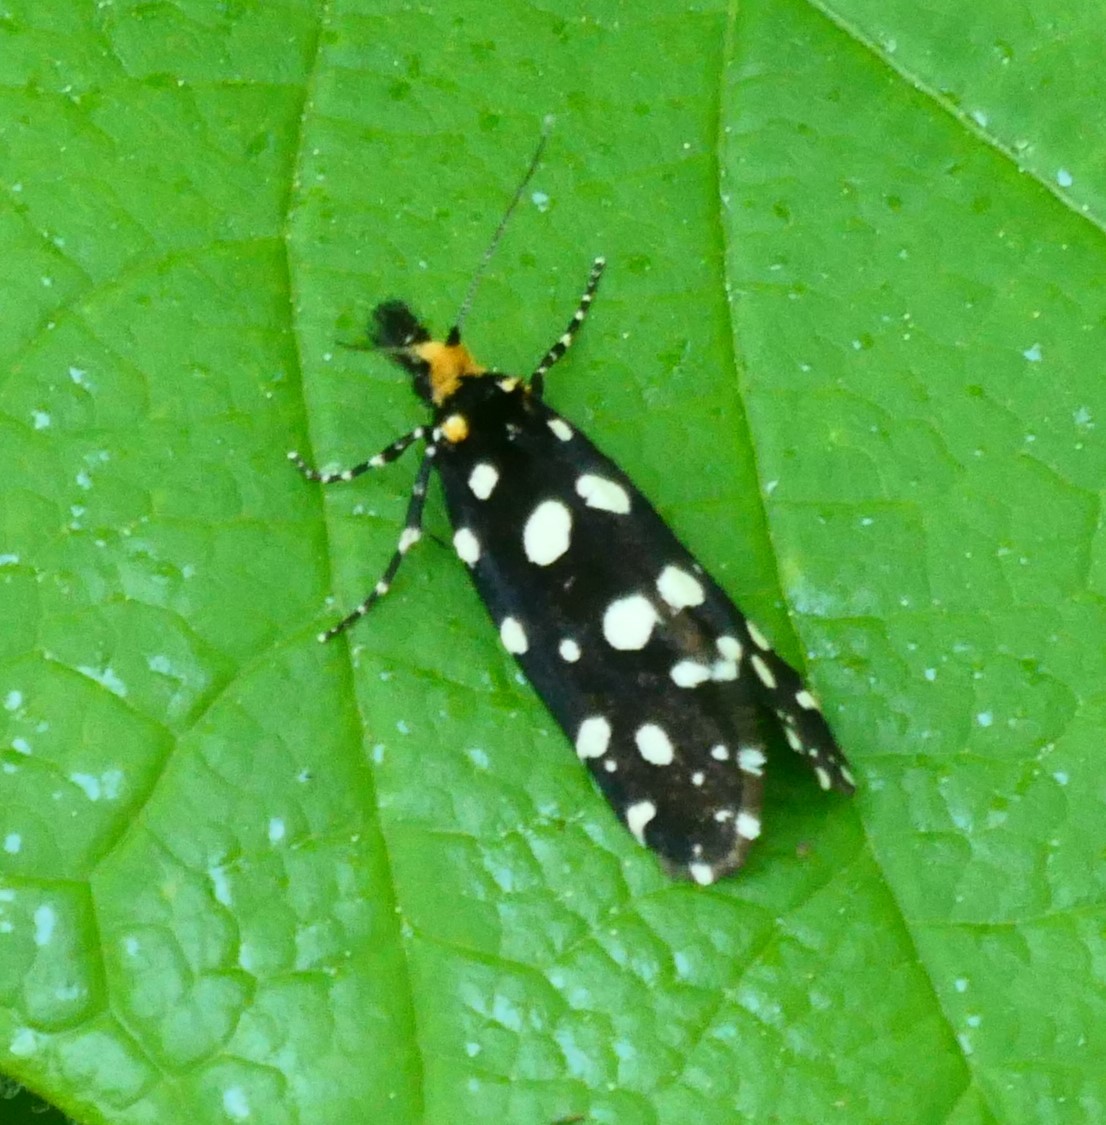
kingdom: Animalia
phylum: Arthropoda
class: Insecta
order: Lepidoptera
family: Tineidae
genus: Euplocamus
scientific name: Euplocamus anthracinalis
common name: Black clothes
